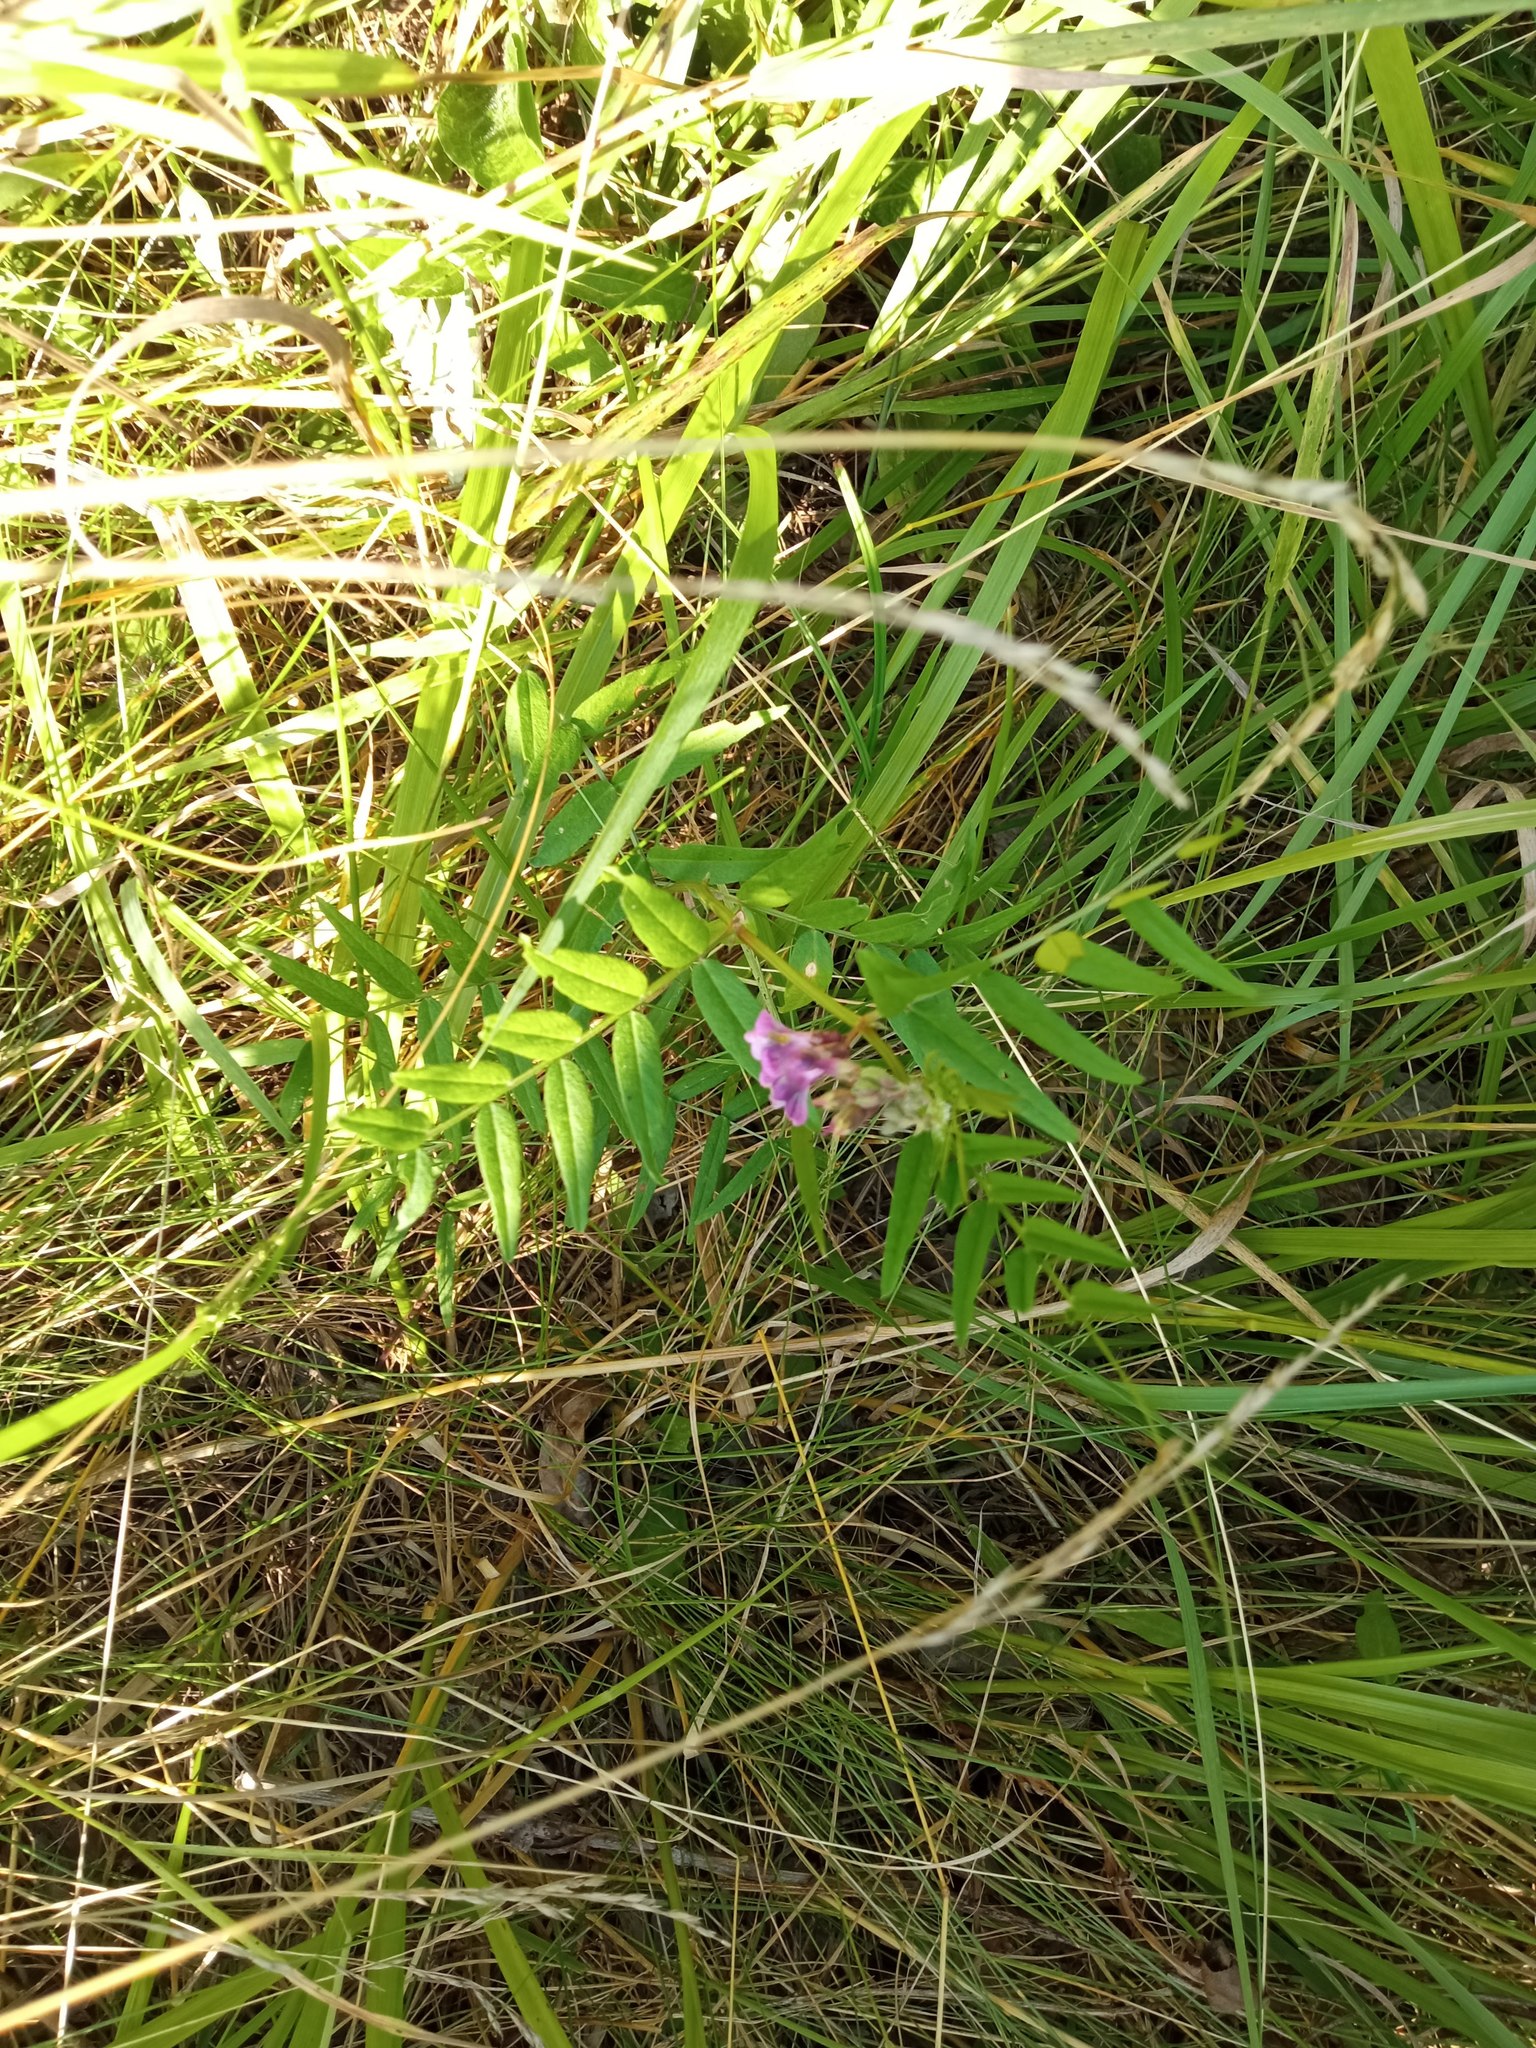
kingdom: Plantae
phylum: Tracheophyta
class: Magnoliopsida
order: Fabales
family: Fabaceae
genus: Vicia
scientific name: Vicia sepium
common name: Bush vetch
